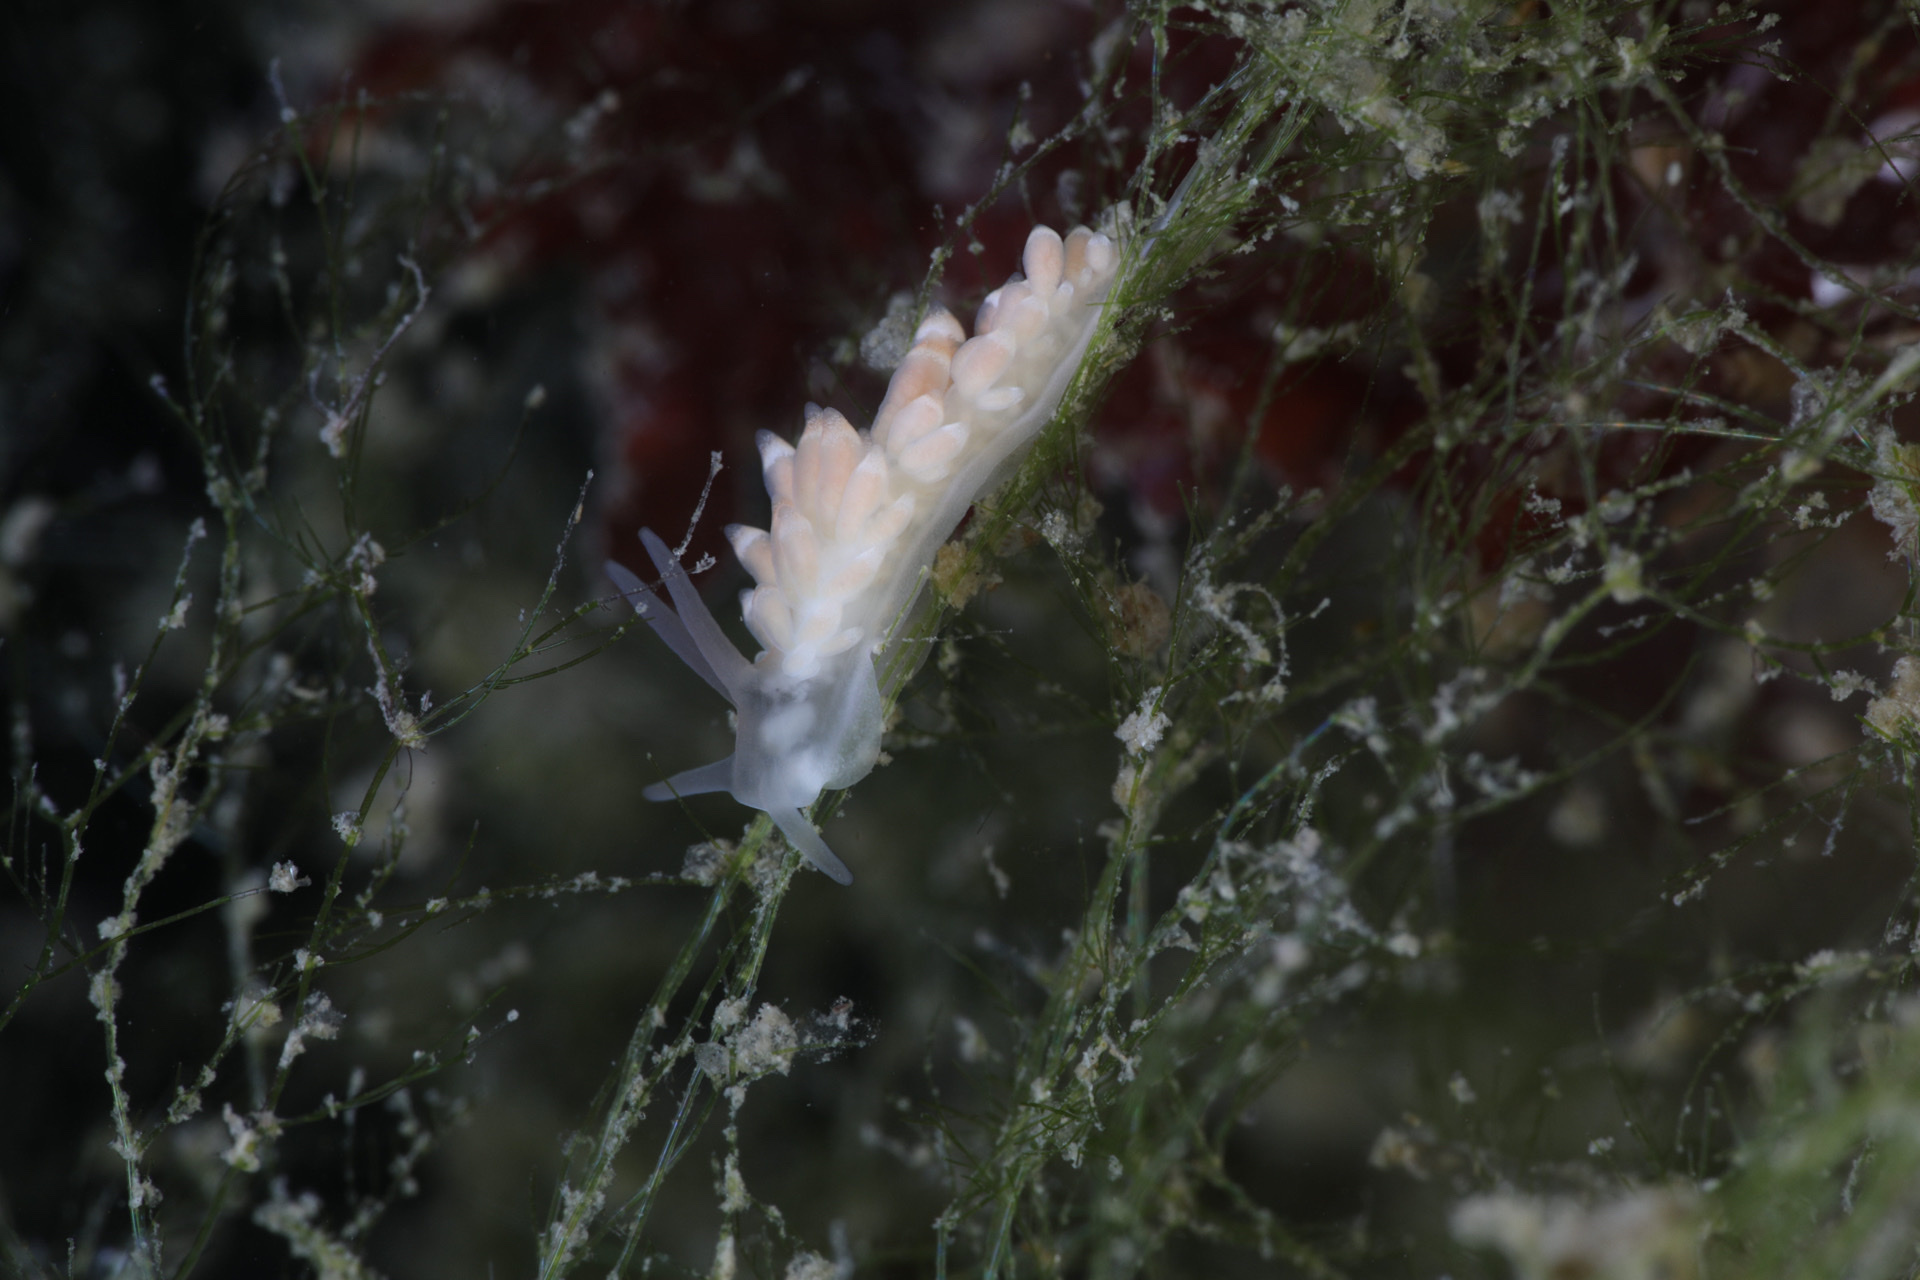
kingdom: Animalia
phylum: Mollusca
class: Gastropoda
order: Nudibranchia
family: Trinchesiidae
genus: Catriona
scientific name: Catriona aurantia
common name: Corange-tip cuthona
